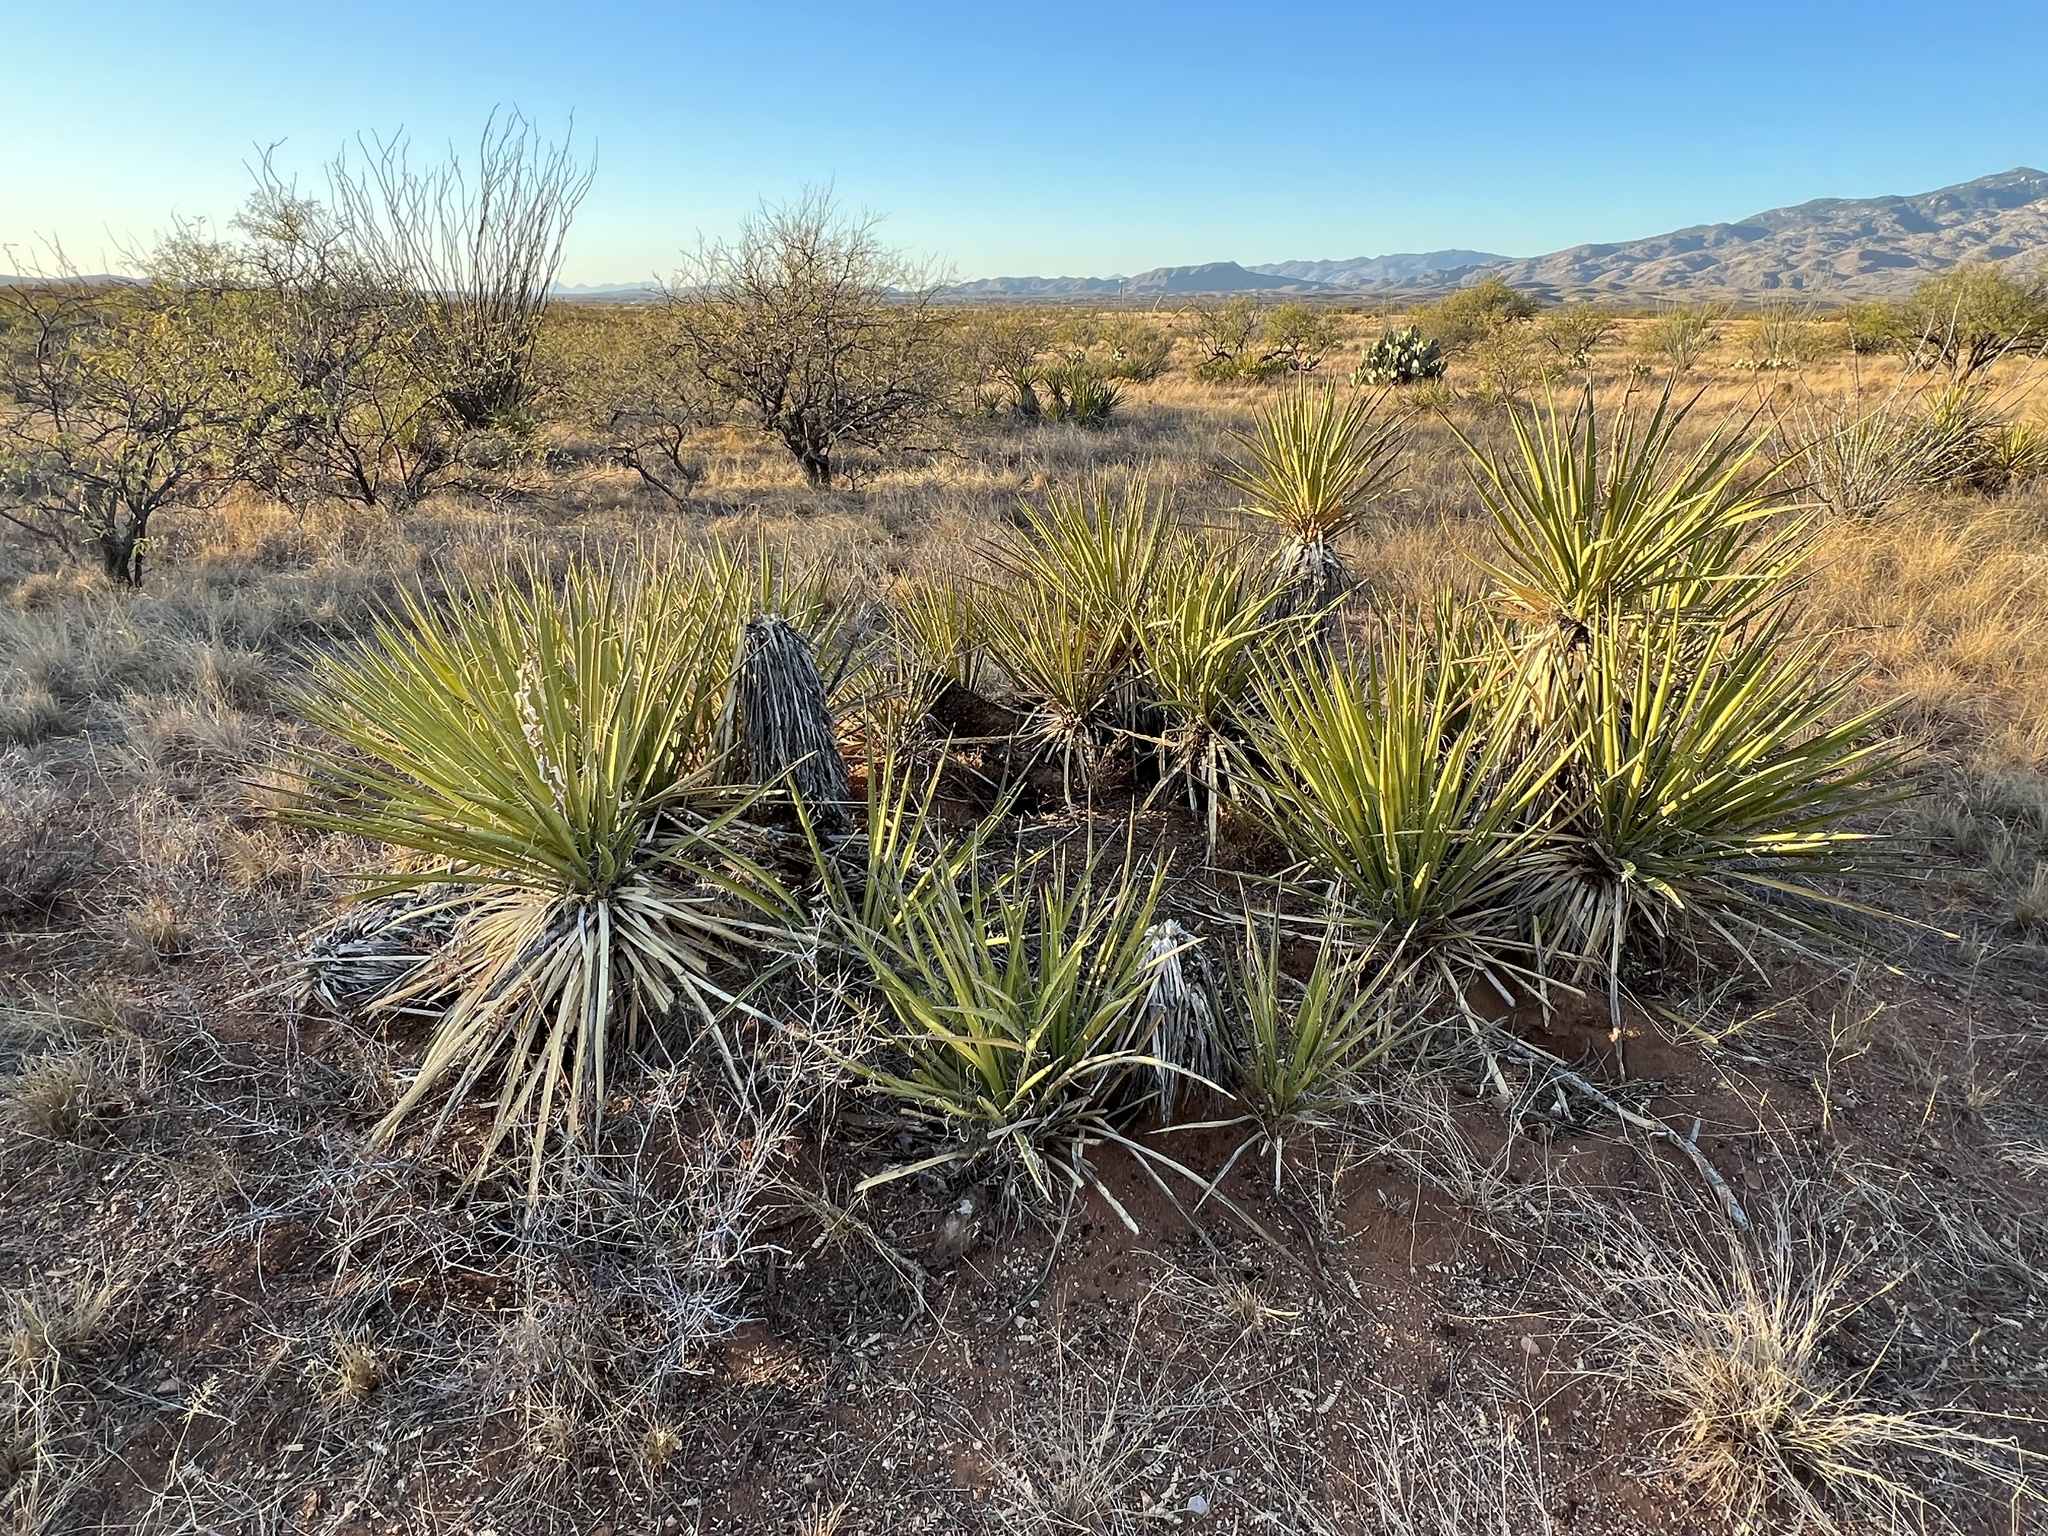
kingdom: Plantae
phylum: Tracheophyta
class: Liliopsida
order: Asparagales
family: Asparagaceae
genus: Yucca
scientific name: Yucca baccata
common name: Banana yucca
